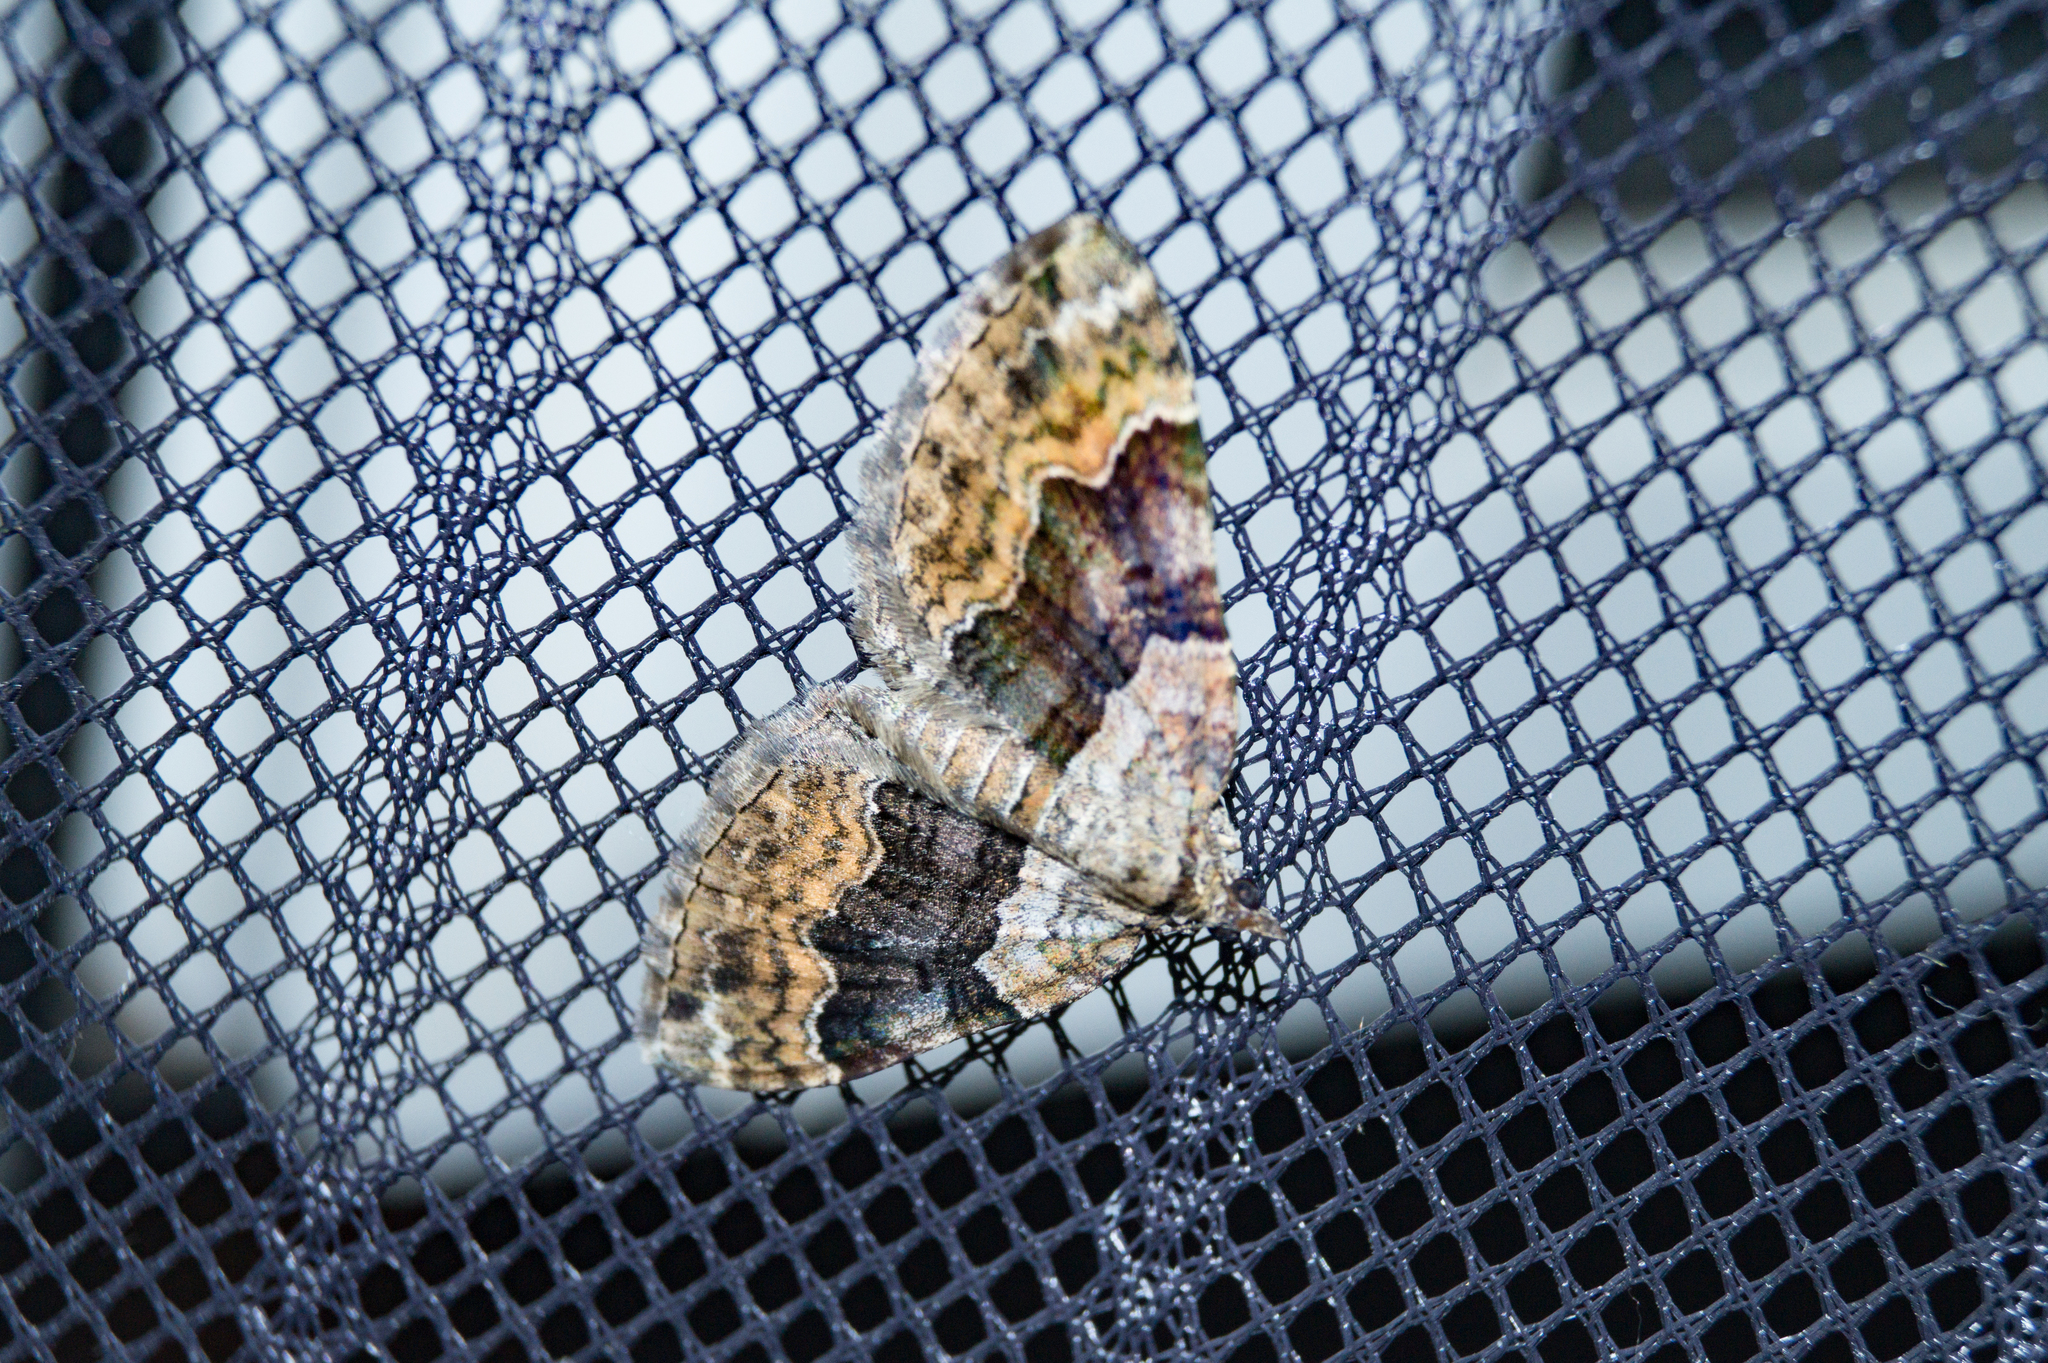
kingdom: Animalia
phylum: Arthropoda
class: Insecta
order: Lepidoptera
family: Geometridae
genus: Xanthorhoe
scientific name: Xanthorhoe quadrifasiata
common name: Large twin-spot carpet
